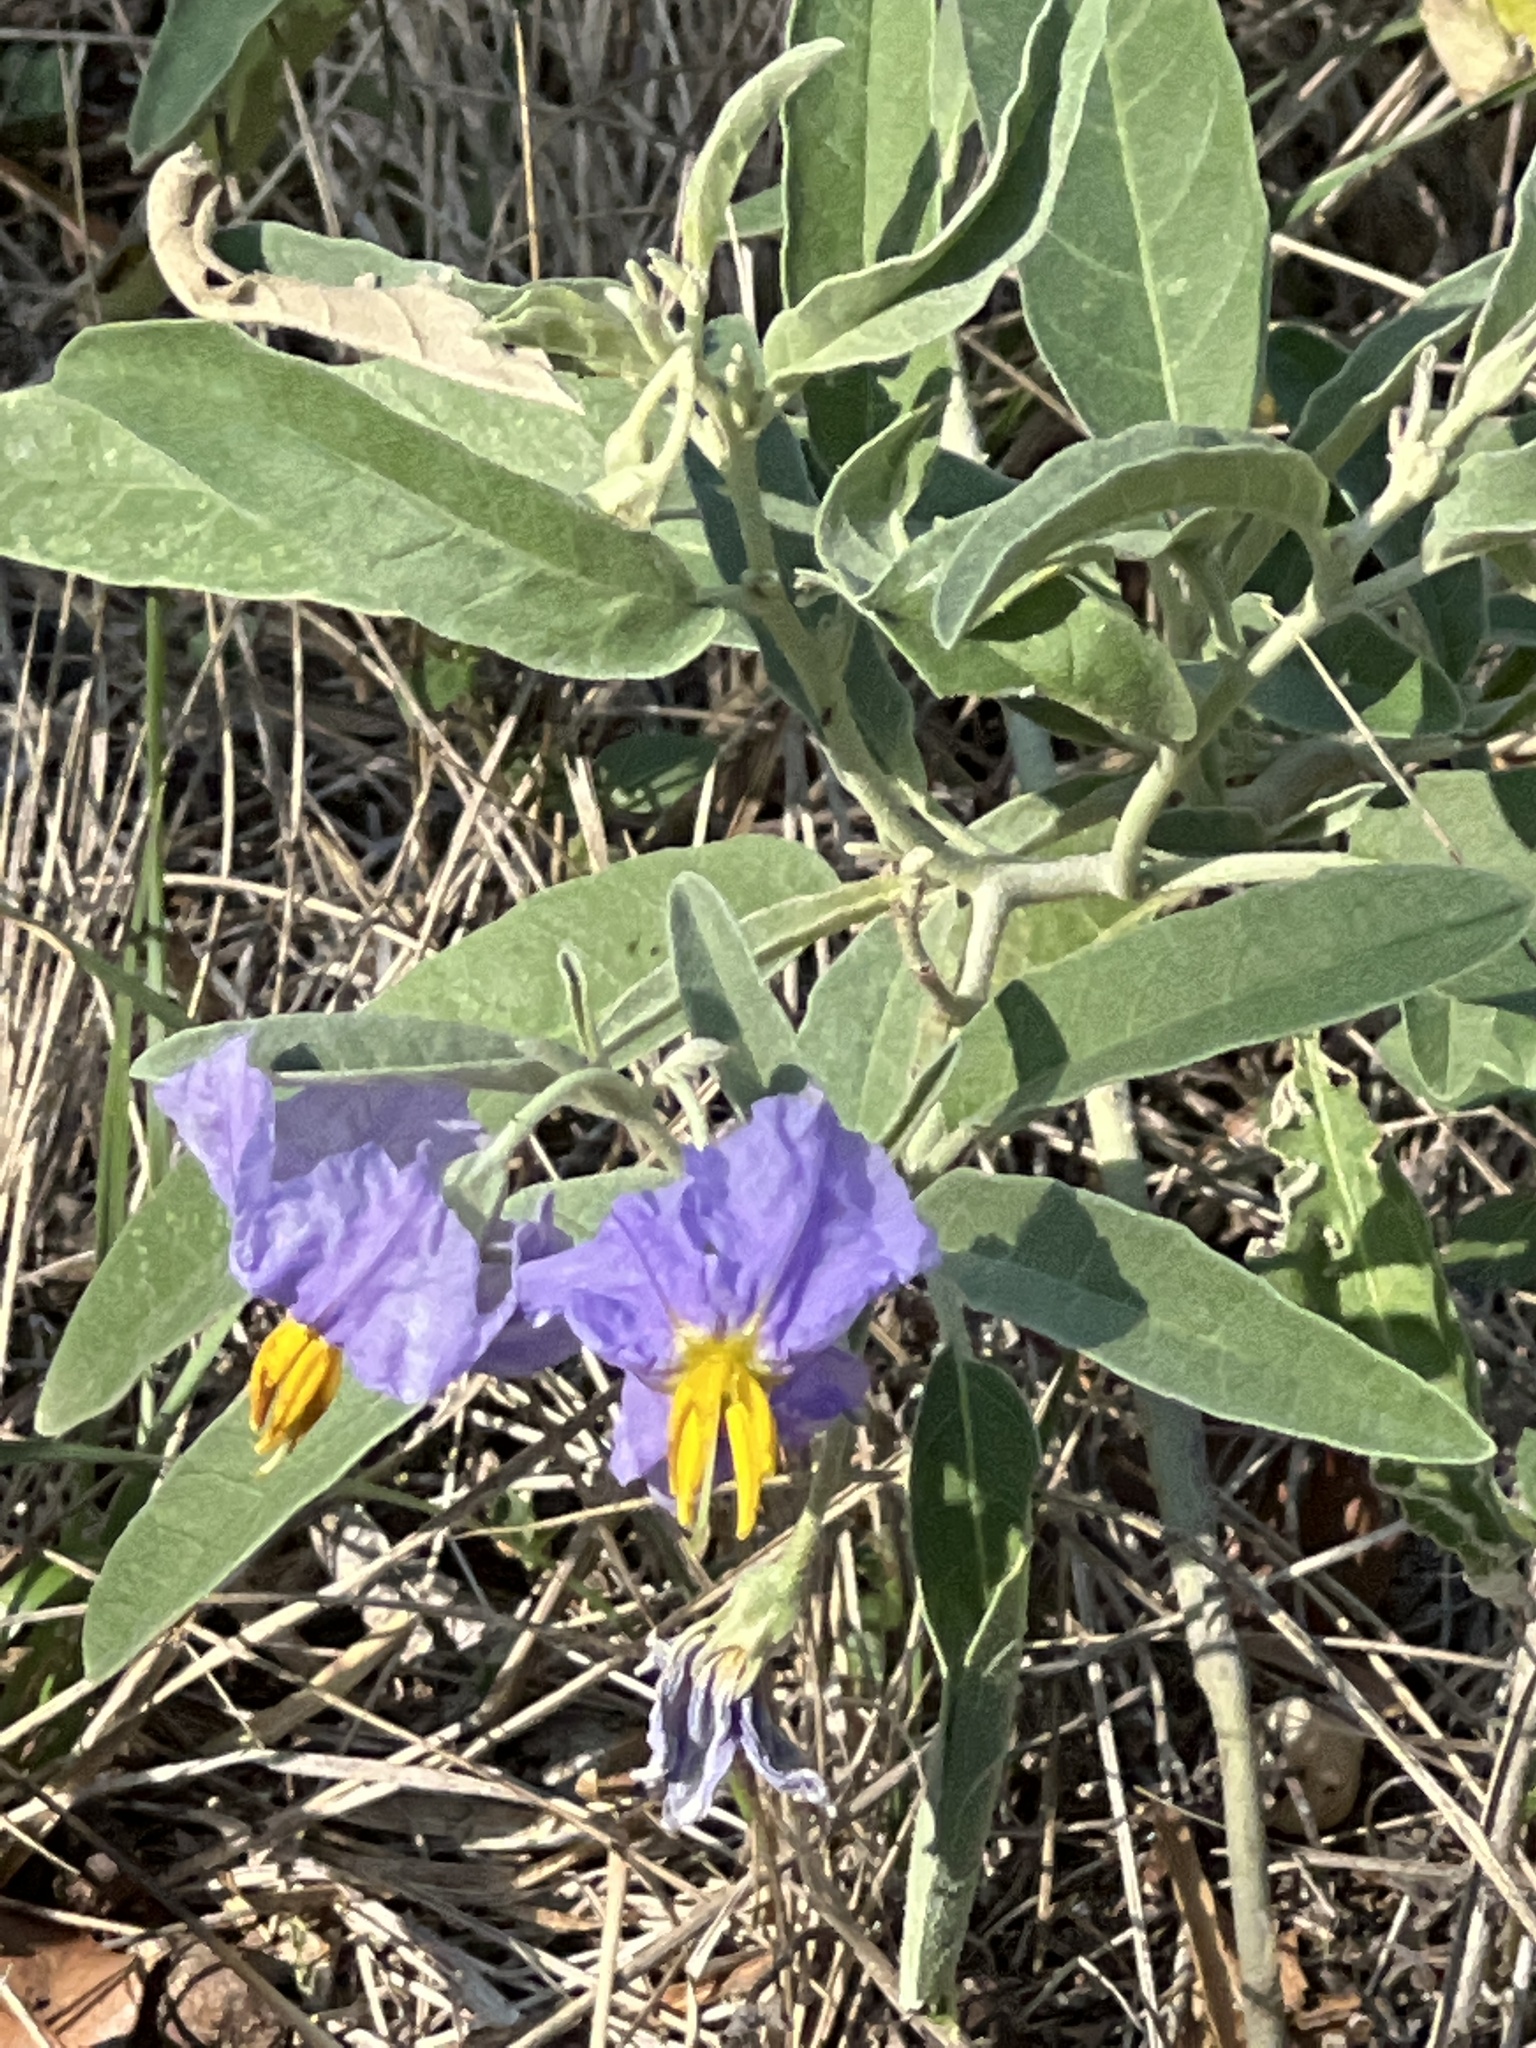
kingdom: Plantae
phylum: Tracheophyta
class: Magnoliopsida
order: Solanales
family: Solanaceae
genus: Solanum
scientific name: Solanum elaeagnifolium
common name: Silverleaf nightshade
